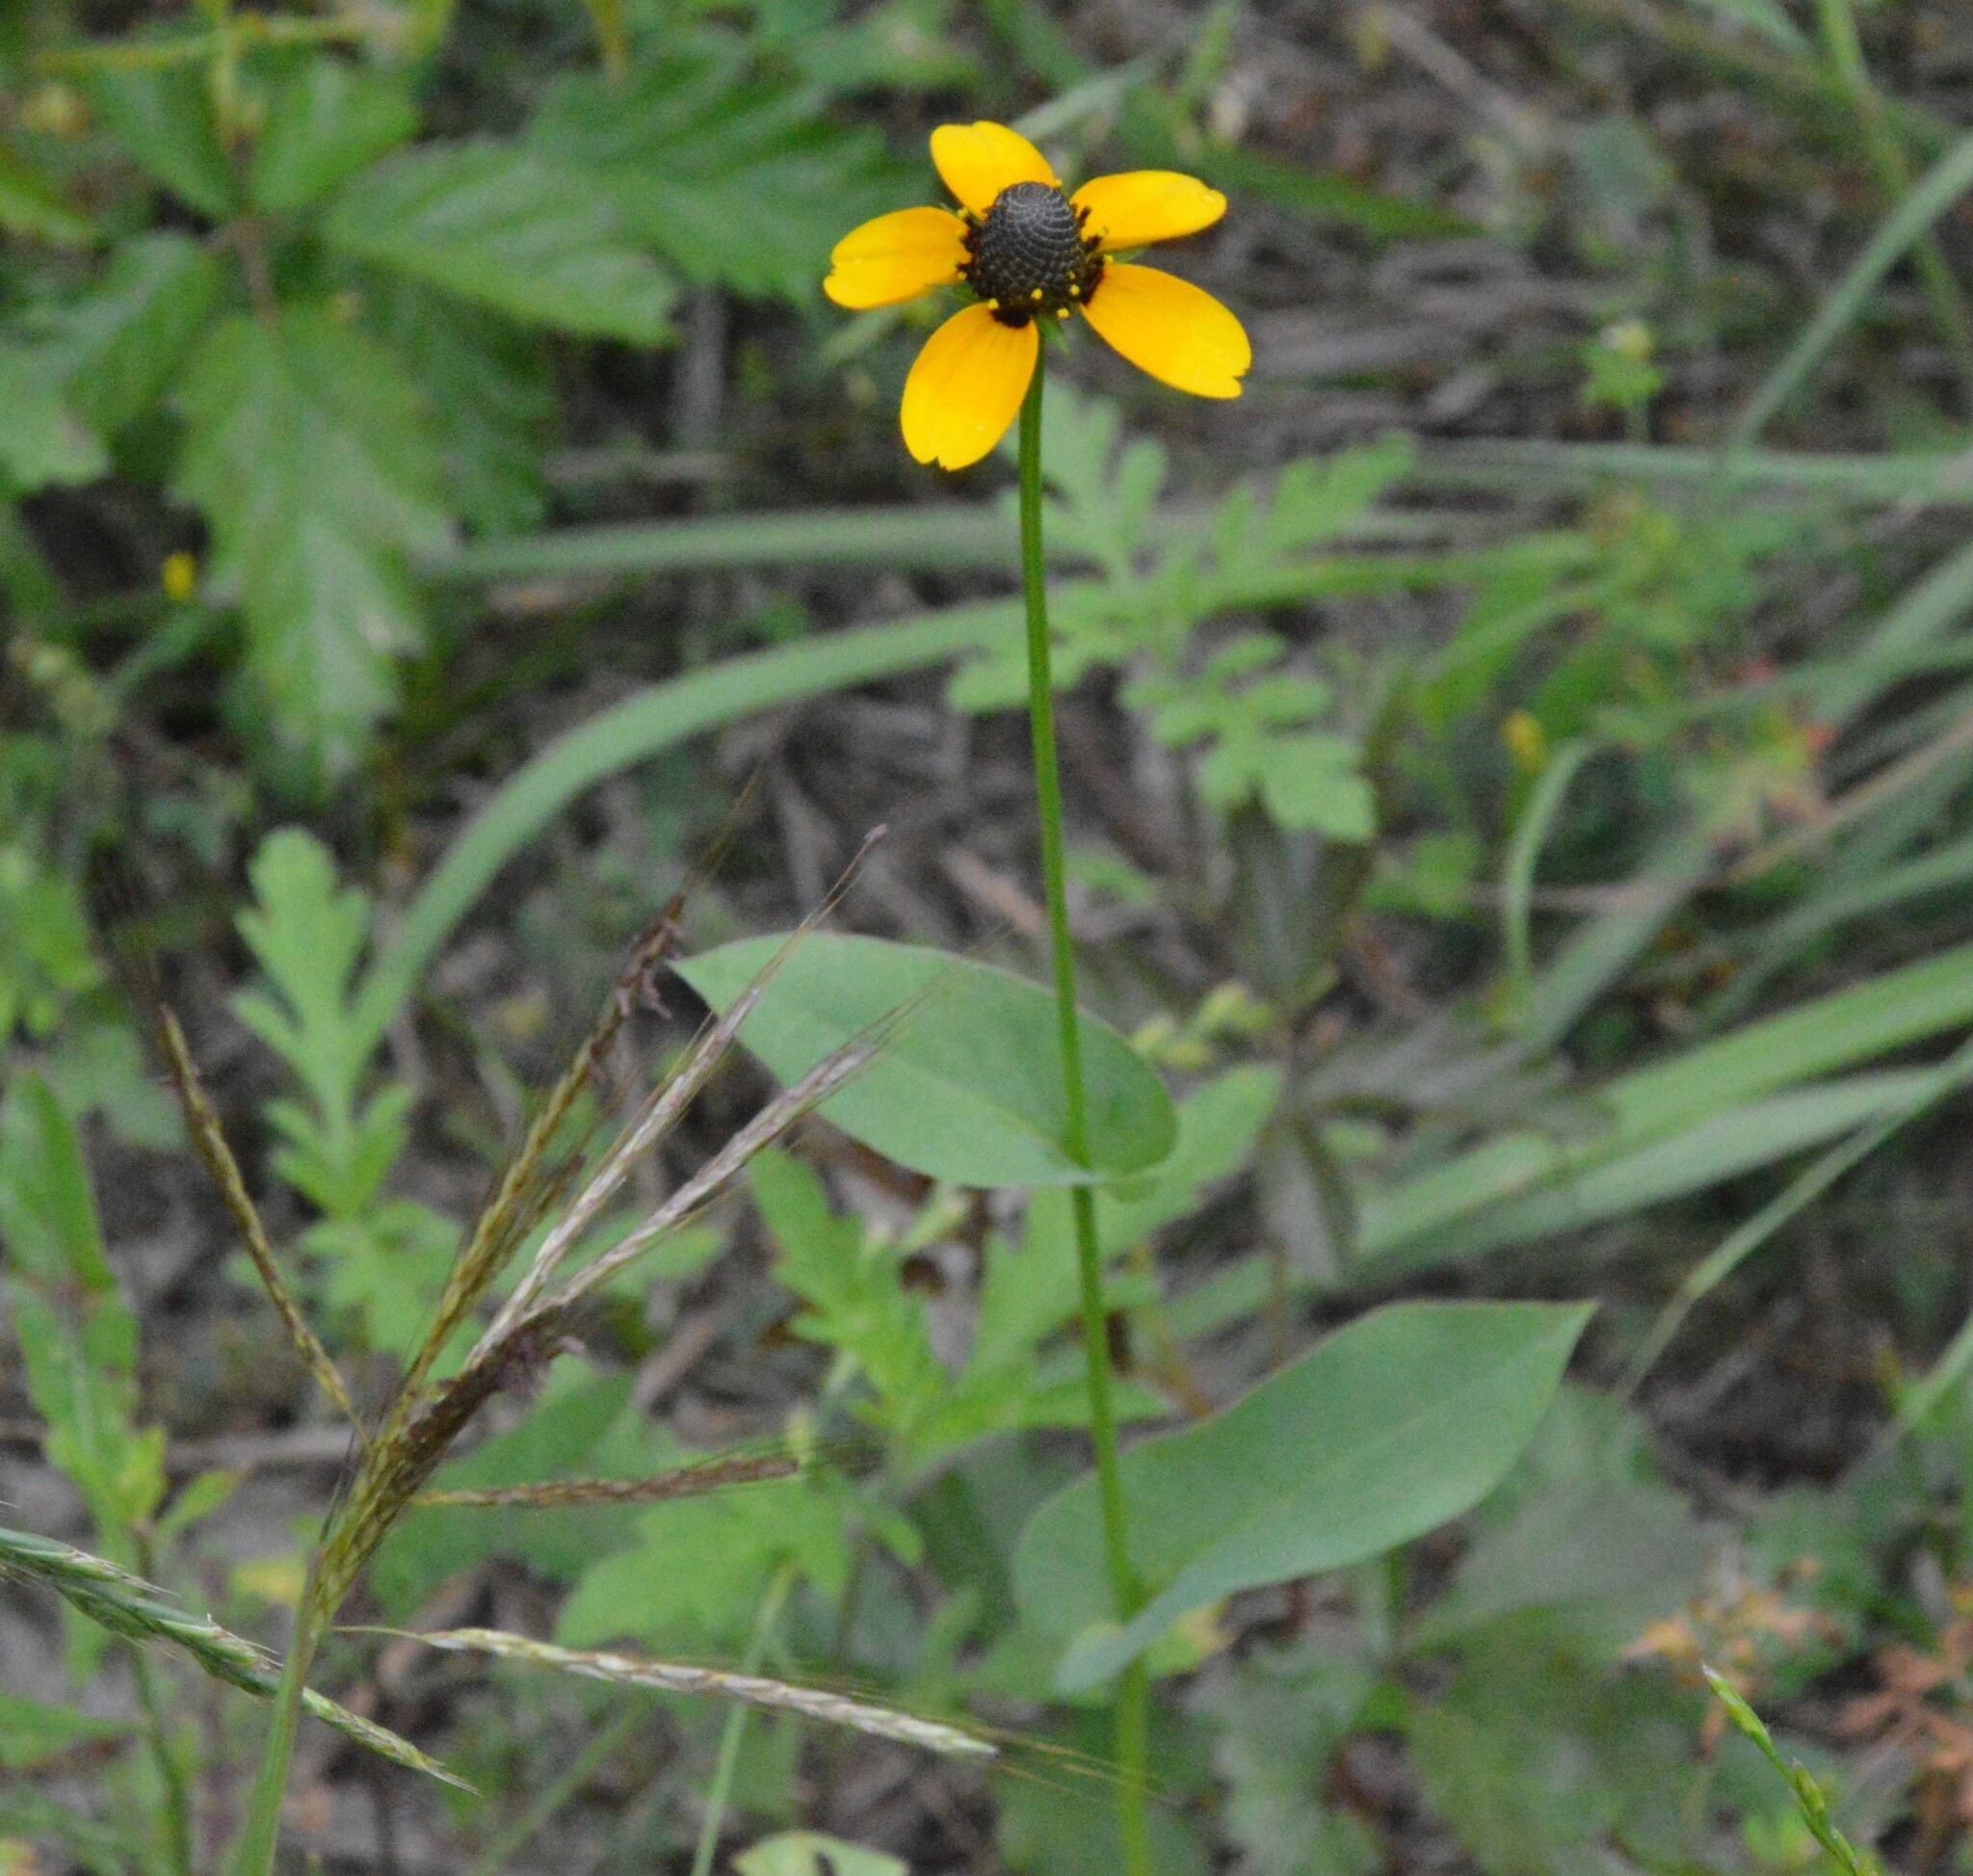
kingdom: Plantae
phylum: Tracheophyta
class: Magnoliopsida
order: Asterales
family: Asteraceae
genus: Rudbeckia
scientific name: Rudbeckia amplexicaulis
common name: Clasping-leaf coneflower
